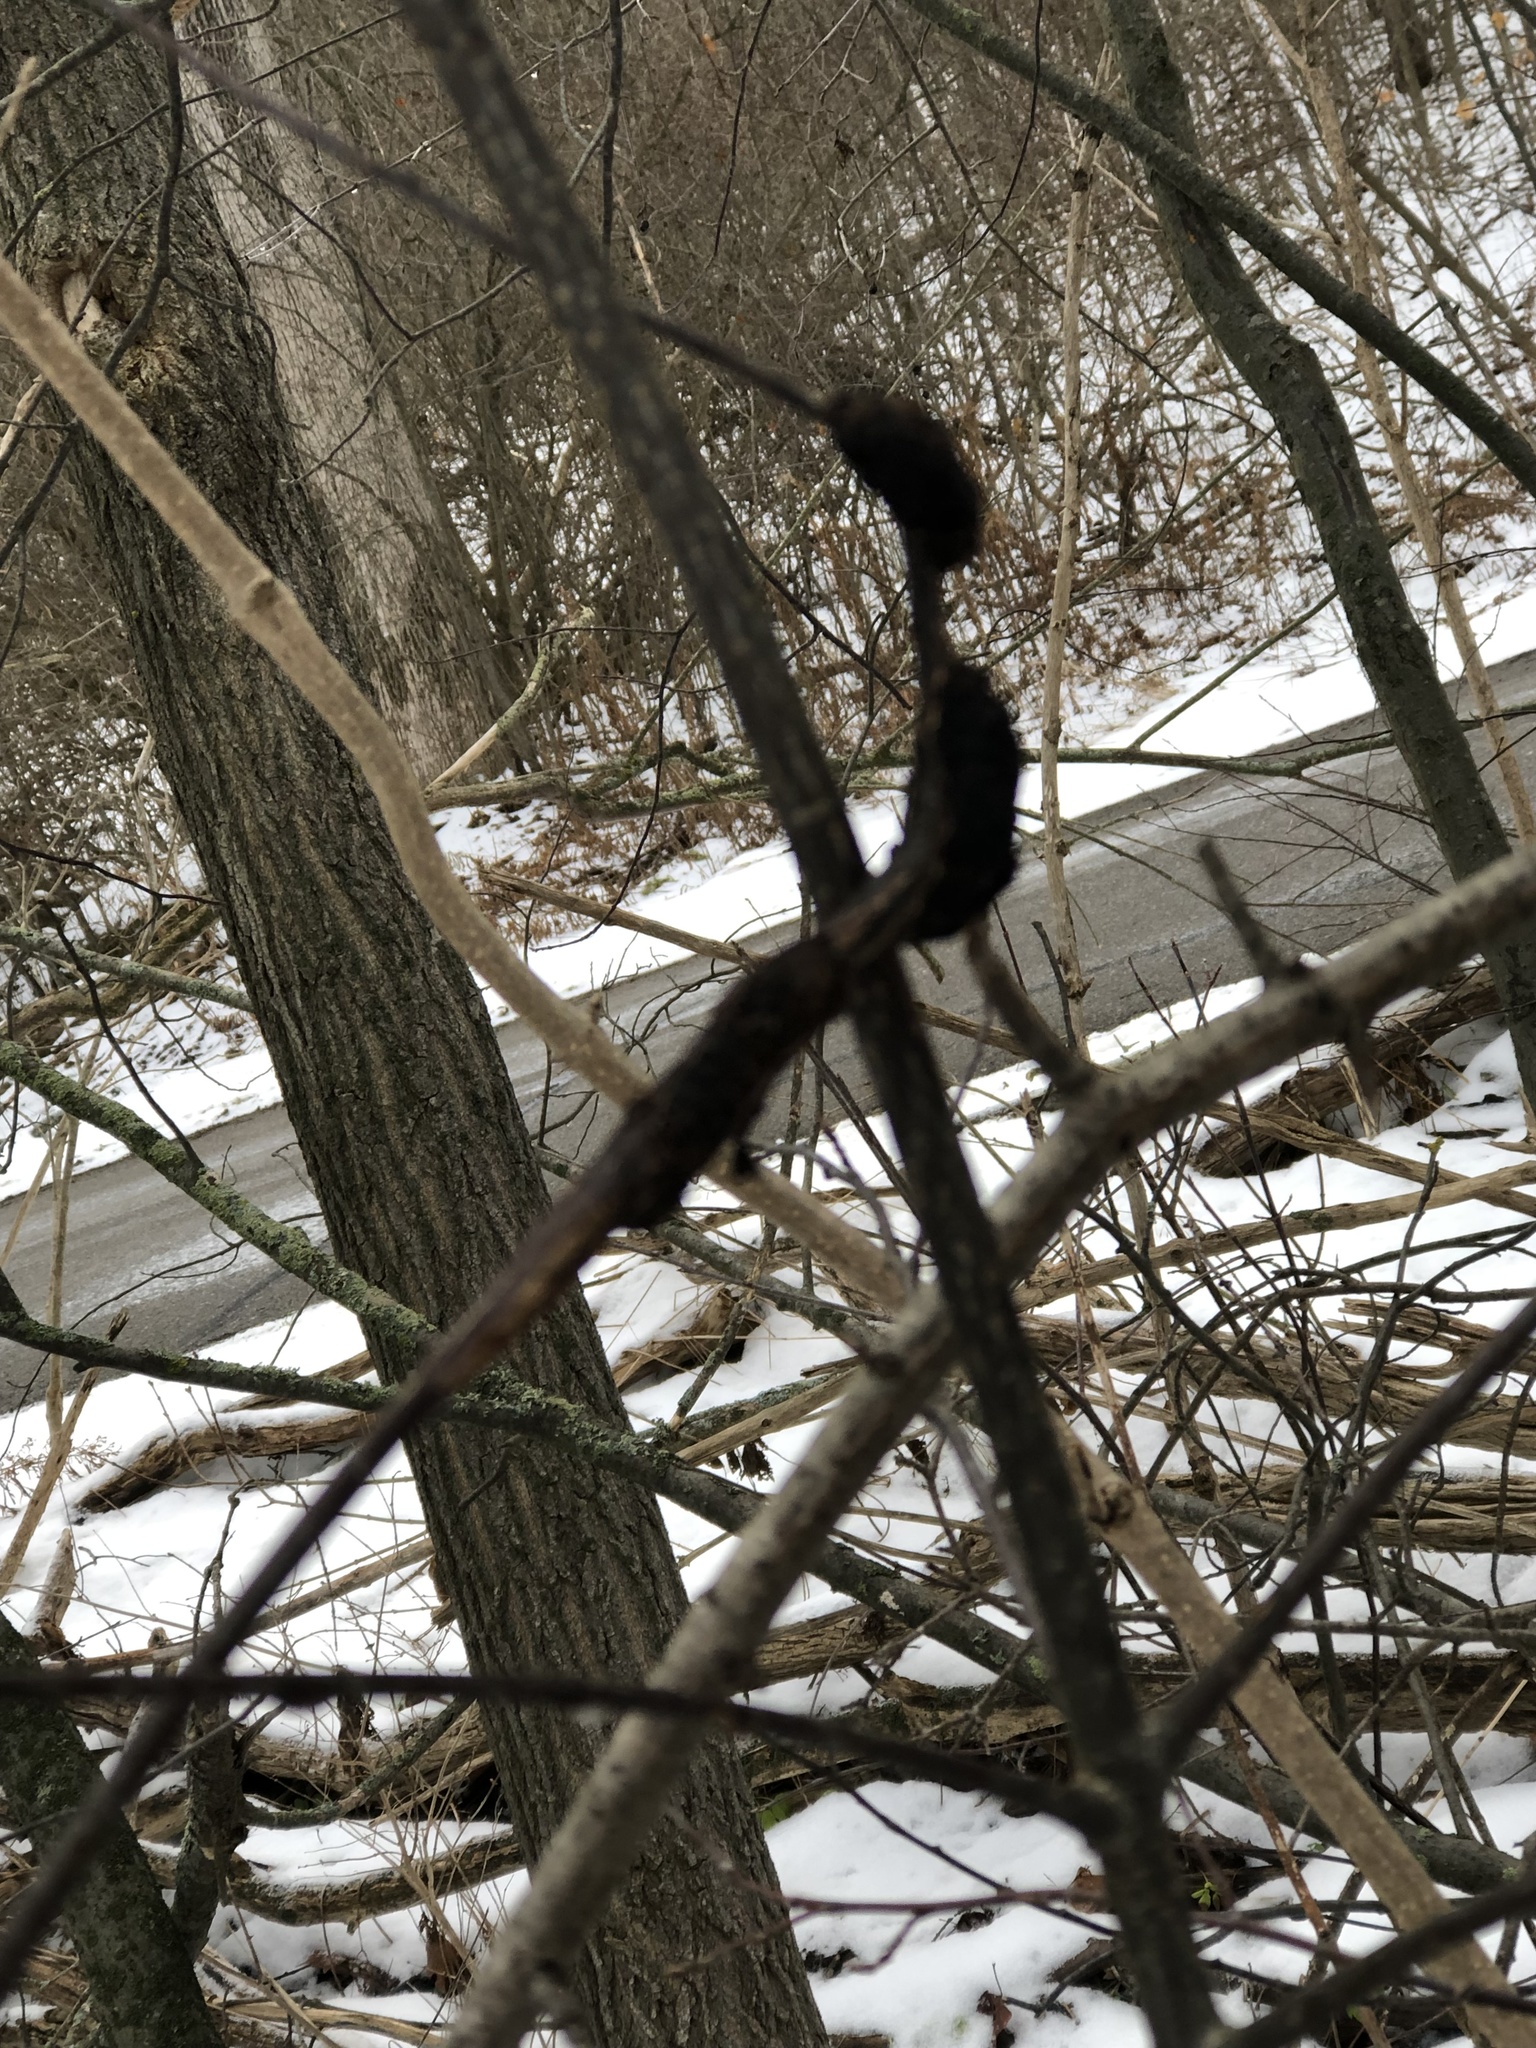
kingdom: Fungi
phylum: Ascomycota
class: Dothideomycetes
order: Venturiales
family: Venturiaceae
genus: Apiosporina
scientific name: Apiosporina morbosa
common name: Black knot
